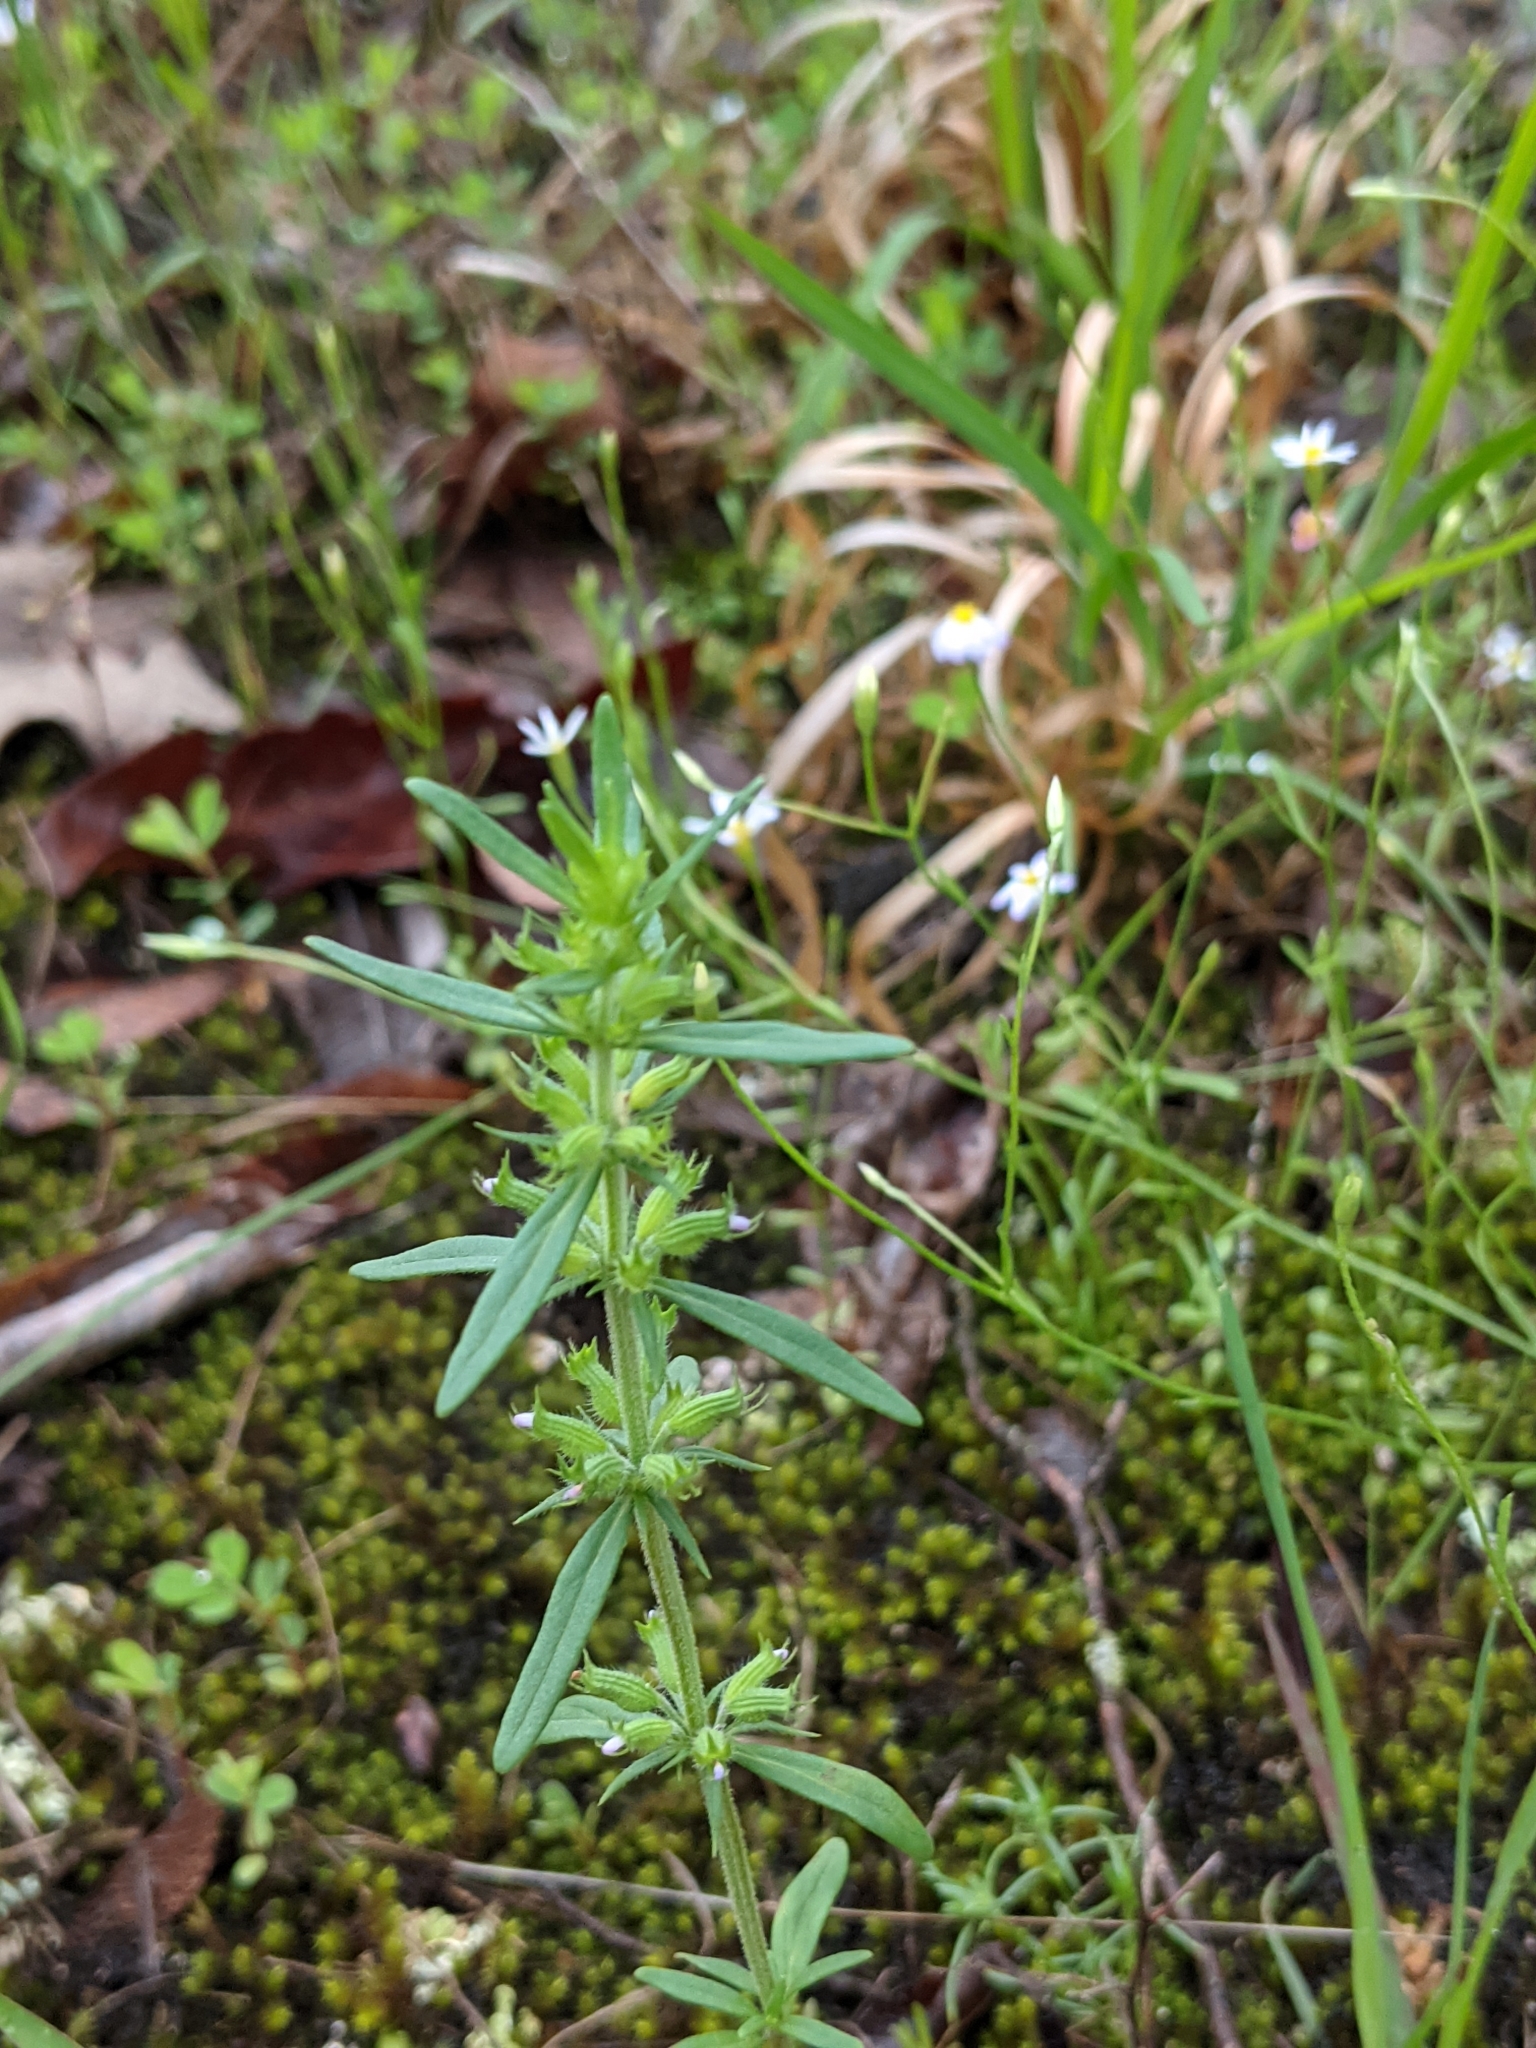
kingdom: Plantae
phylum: Tracheophyta
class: Magnoliopsida
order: Lamiales
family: Lamiaceae
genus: Hedeoma
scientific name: Hedeoma hispida
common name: Mock pennyroyal
